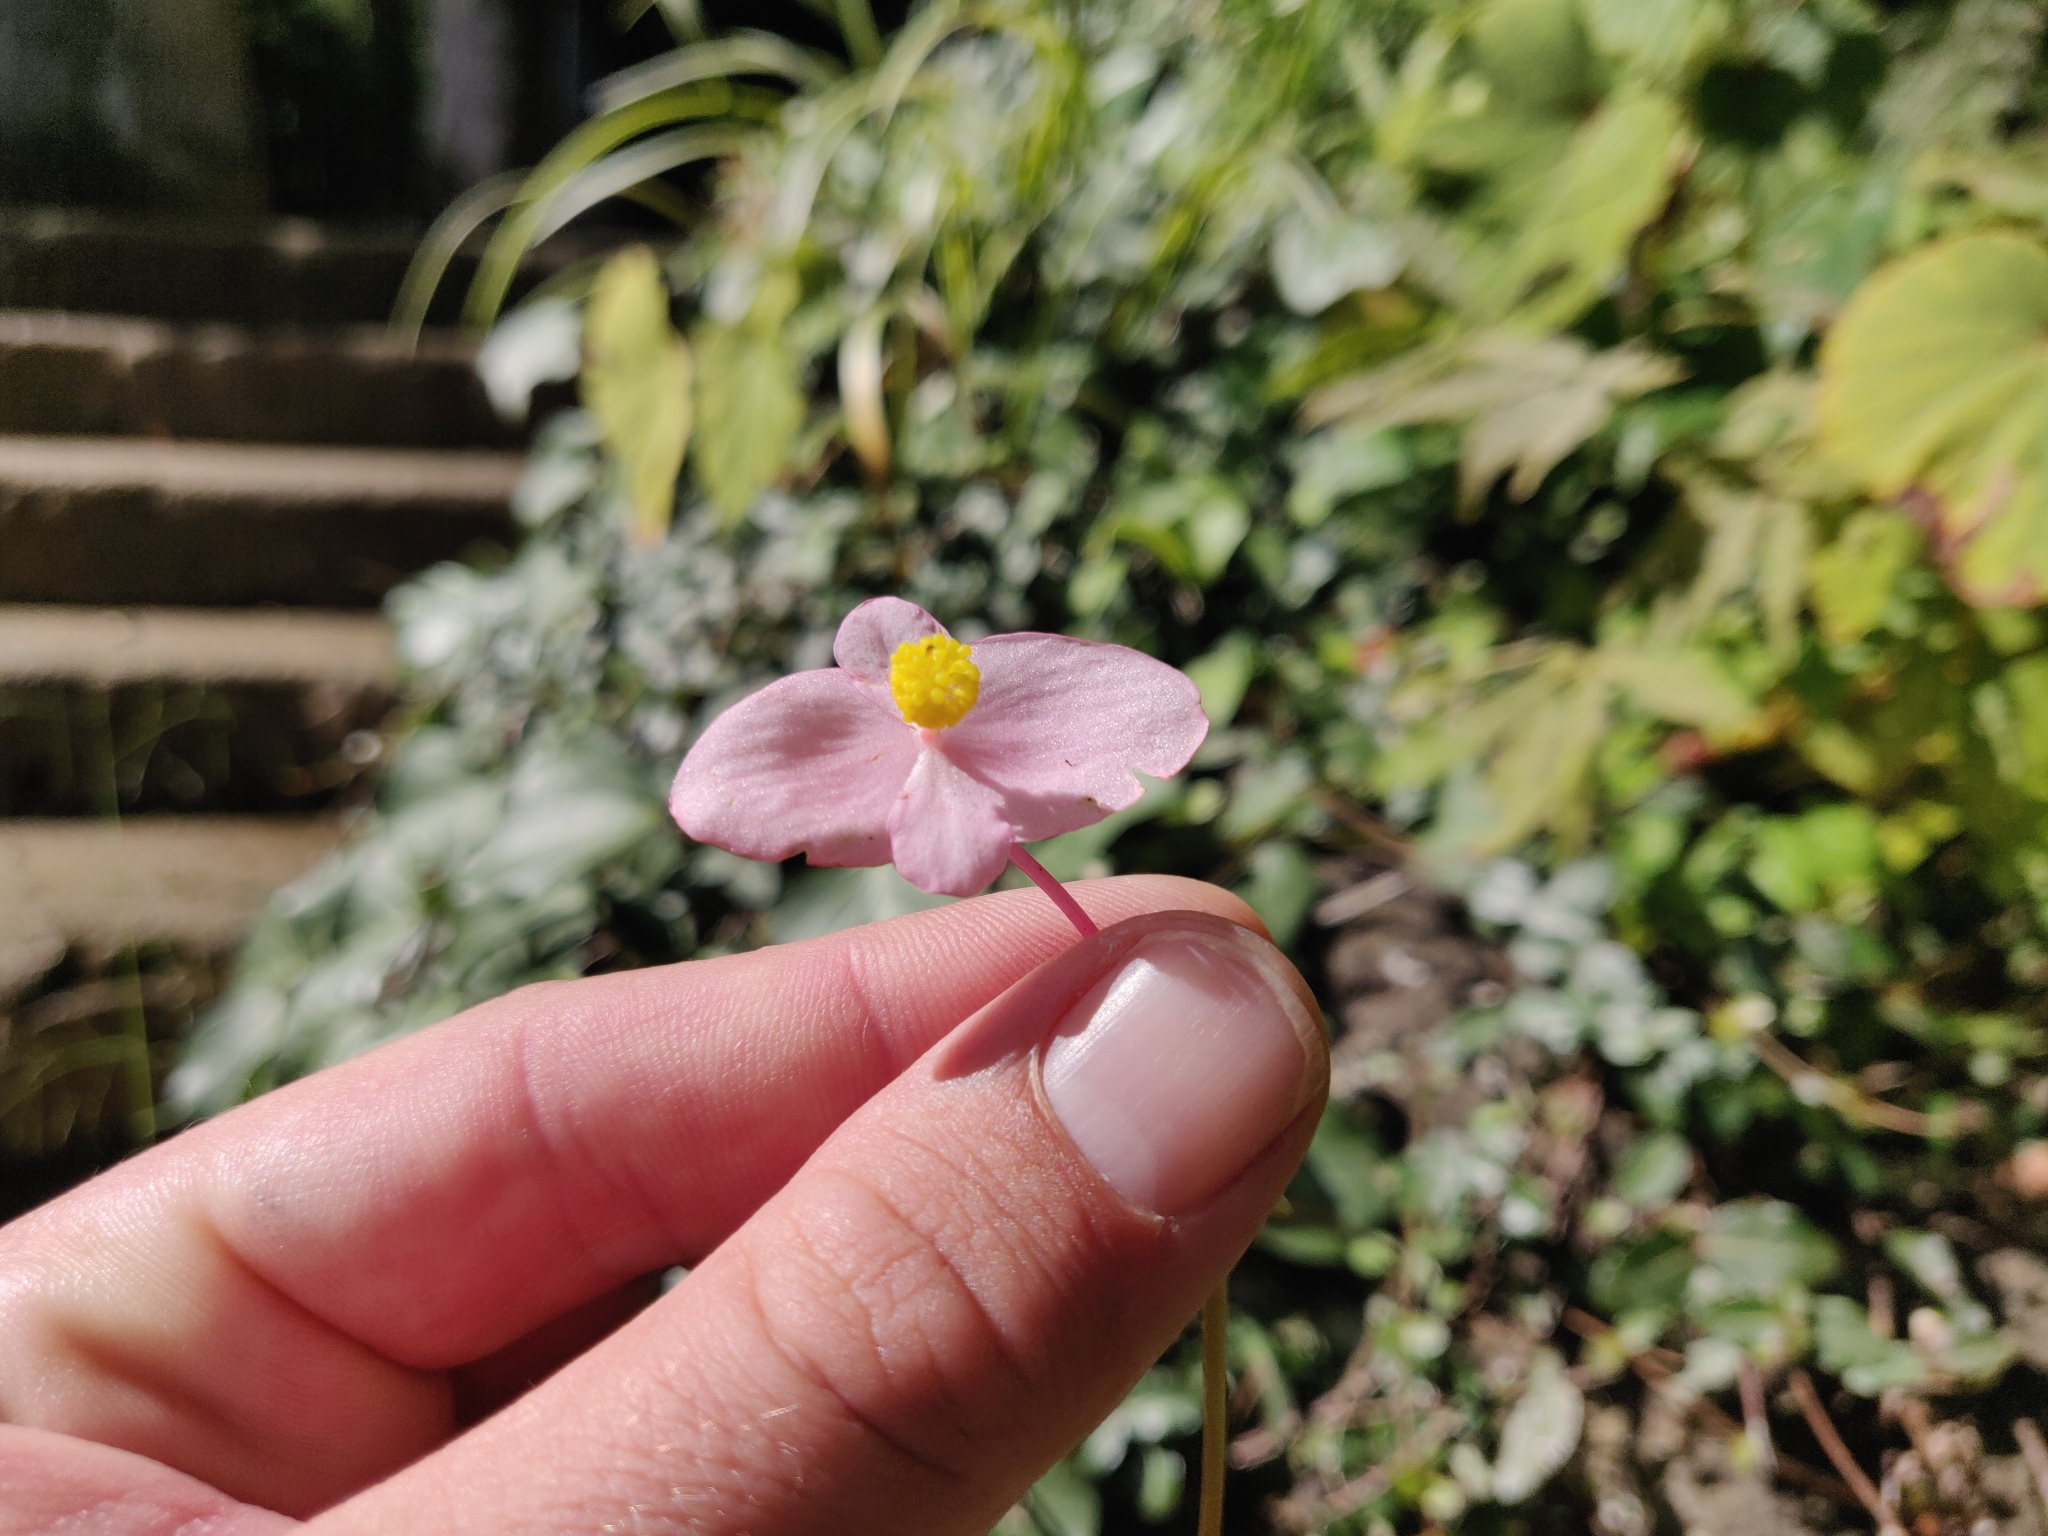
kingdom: Plantae
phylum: Tracheophyta
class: Magnoliopsida
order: Cucurbitales
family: Begoniaceae
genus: Begonia
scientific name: Begonia grandis
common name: Hardy begonia
